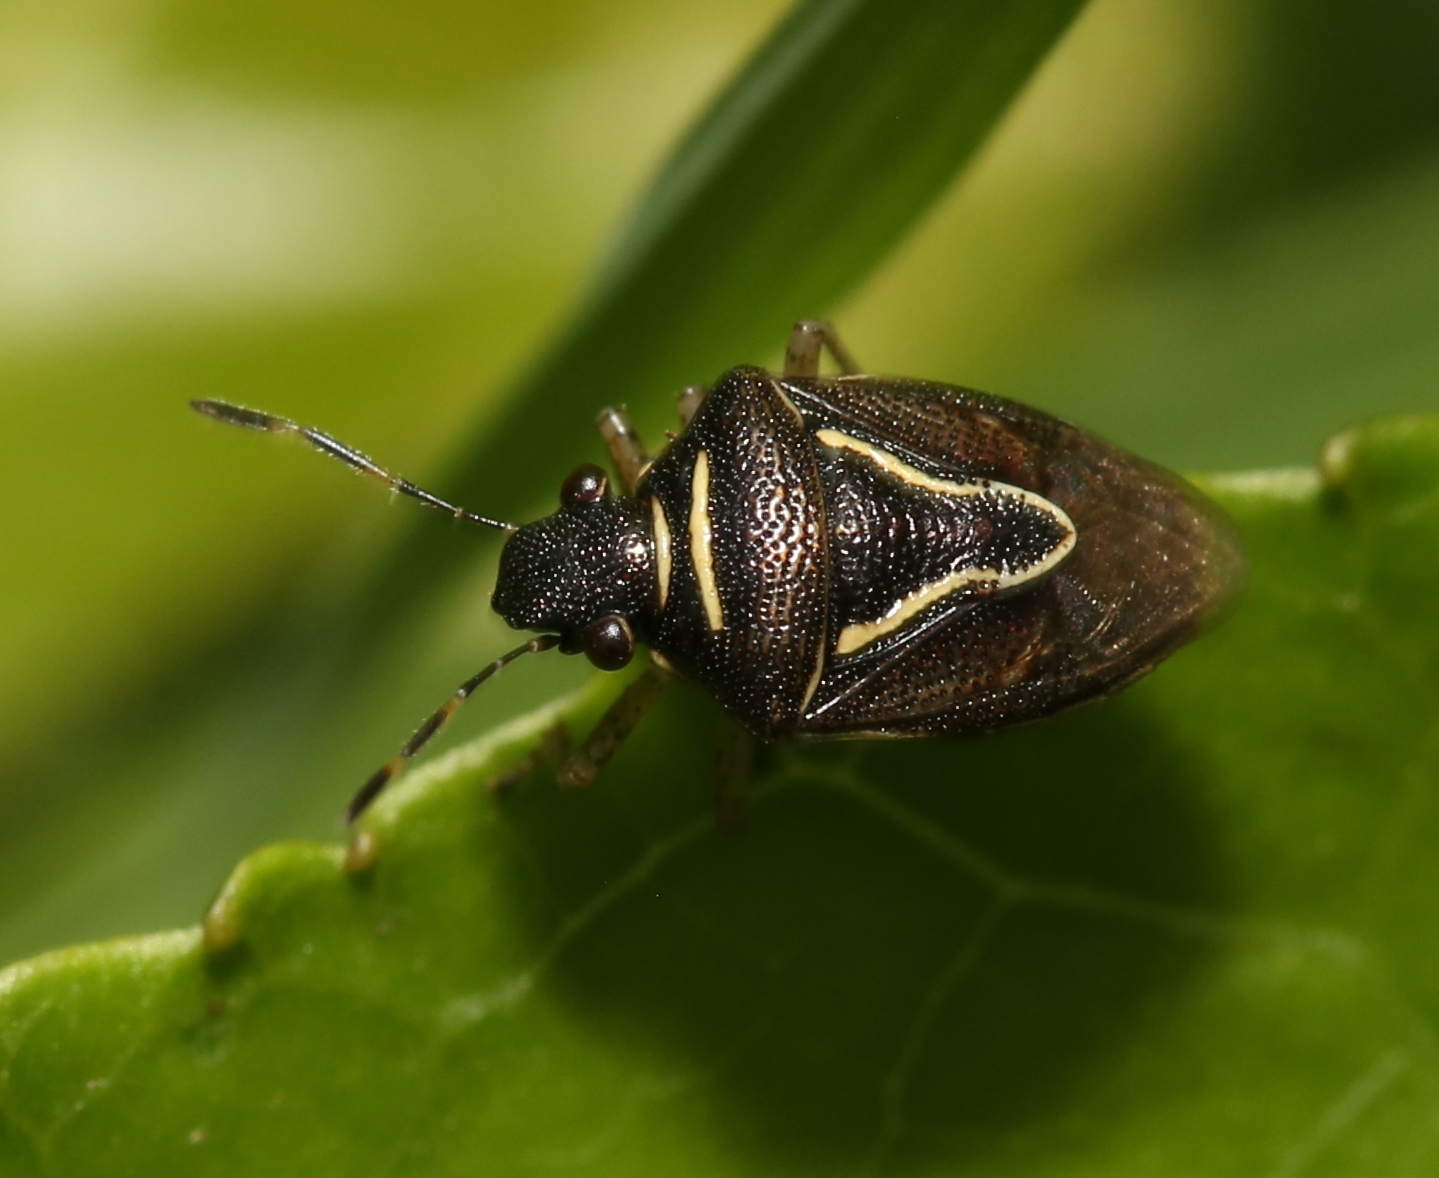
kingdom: Animalia
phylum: Arthropoda
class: Insecta
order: Hemiptera
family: Pentatomidae
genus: Mormidea
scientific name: Mormidea lugens
